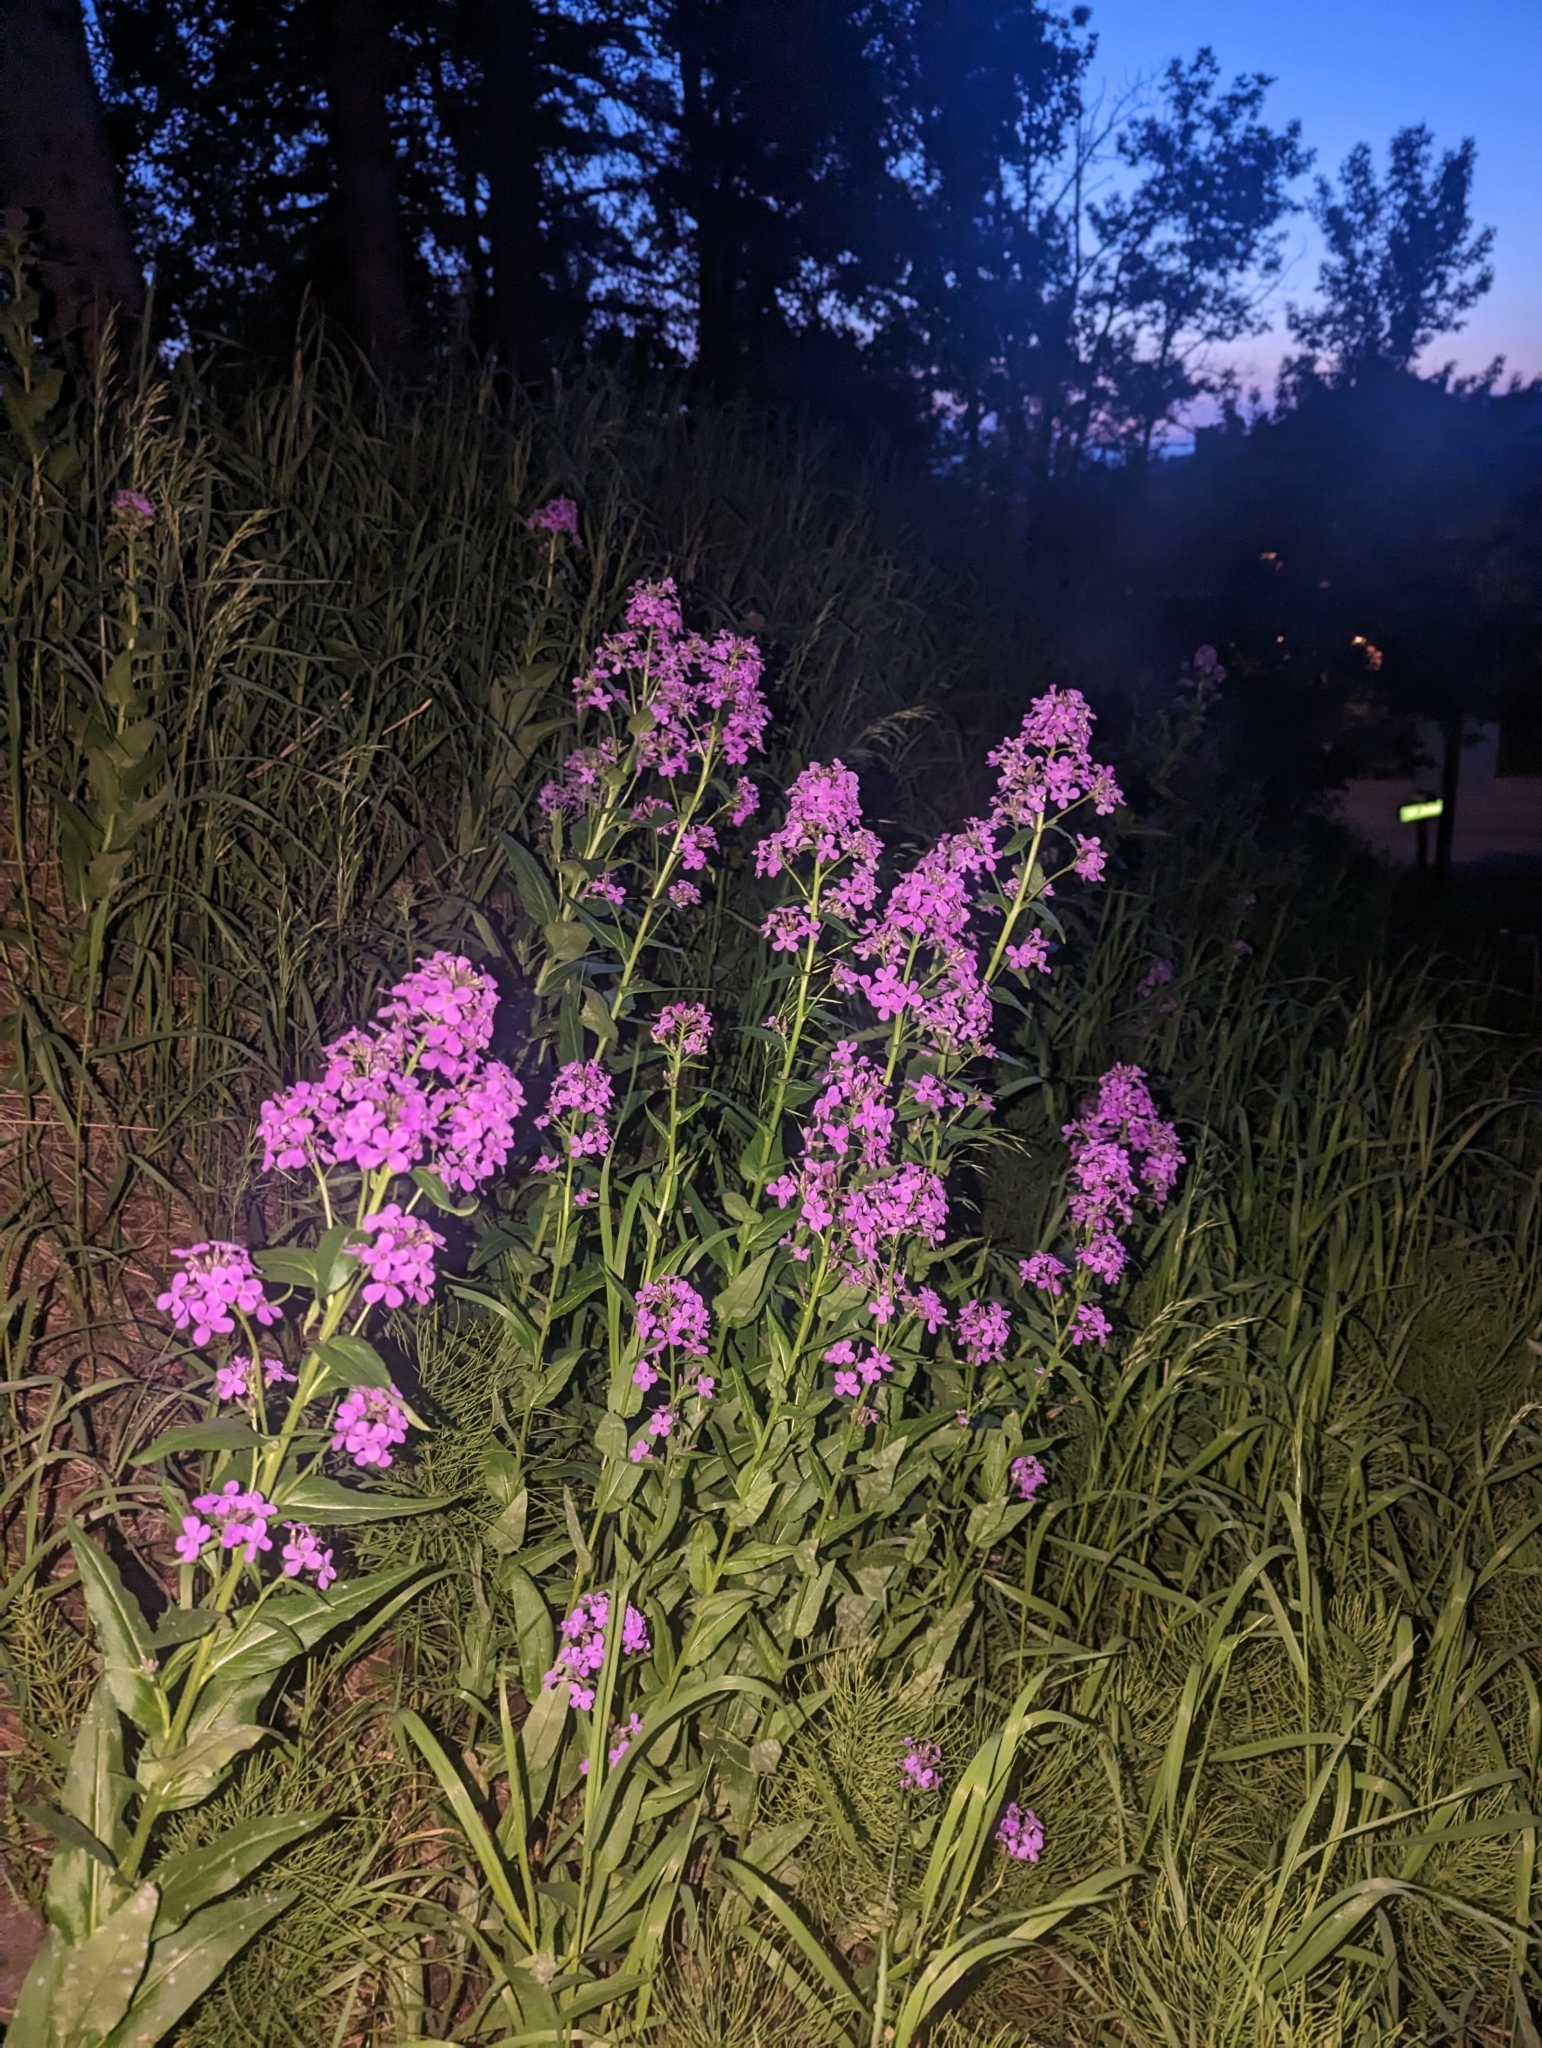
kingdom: Plantae
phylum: Tracheophyta
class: Magnoliopsida
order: Brassicales
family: Brassicaceae
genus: Hesperis
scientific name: Hesperis matronalis
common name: Dame's-violet
